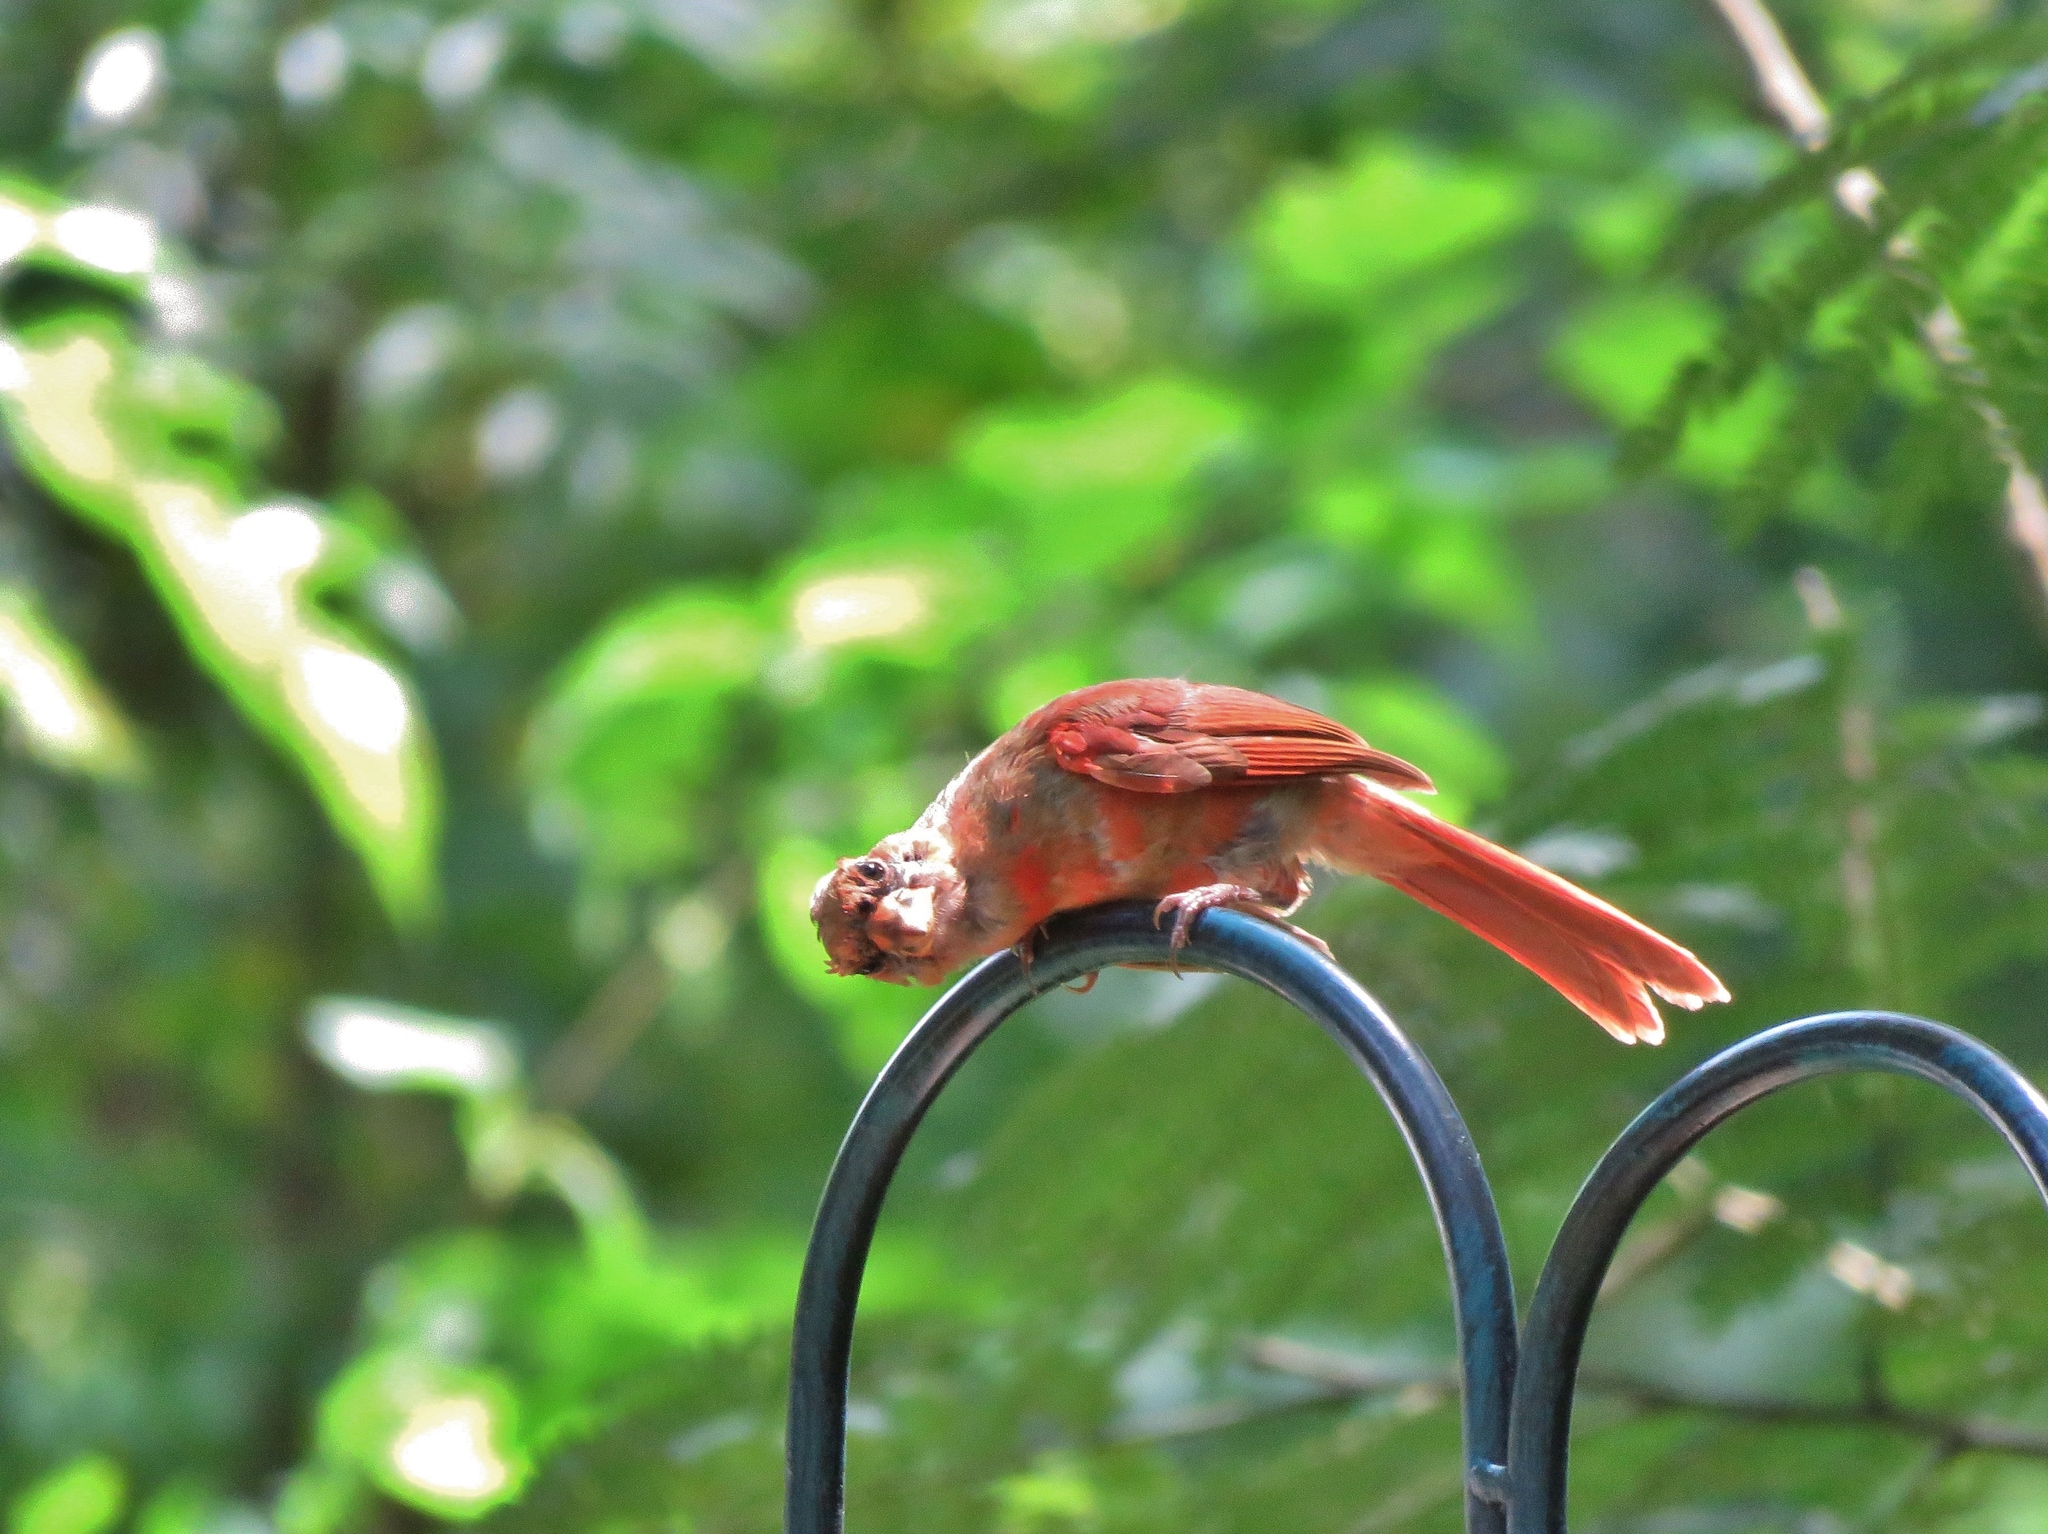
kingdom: Animalia
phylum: Chordata
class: Aves
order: Passeriformes
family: Cardinalidae
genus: Cardinalis
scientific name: Cardinalis cardinalis
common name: Northern cardinal
